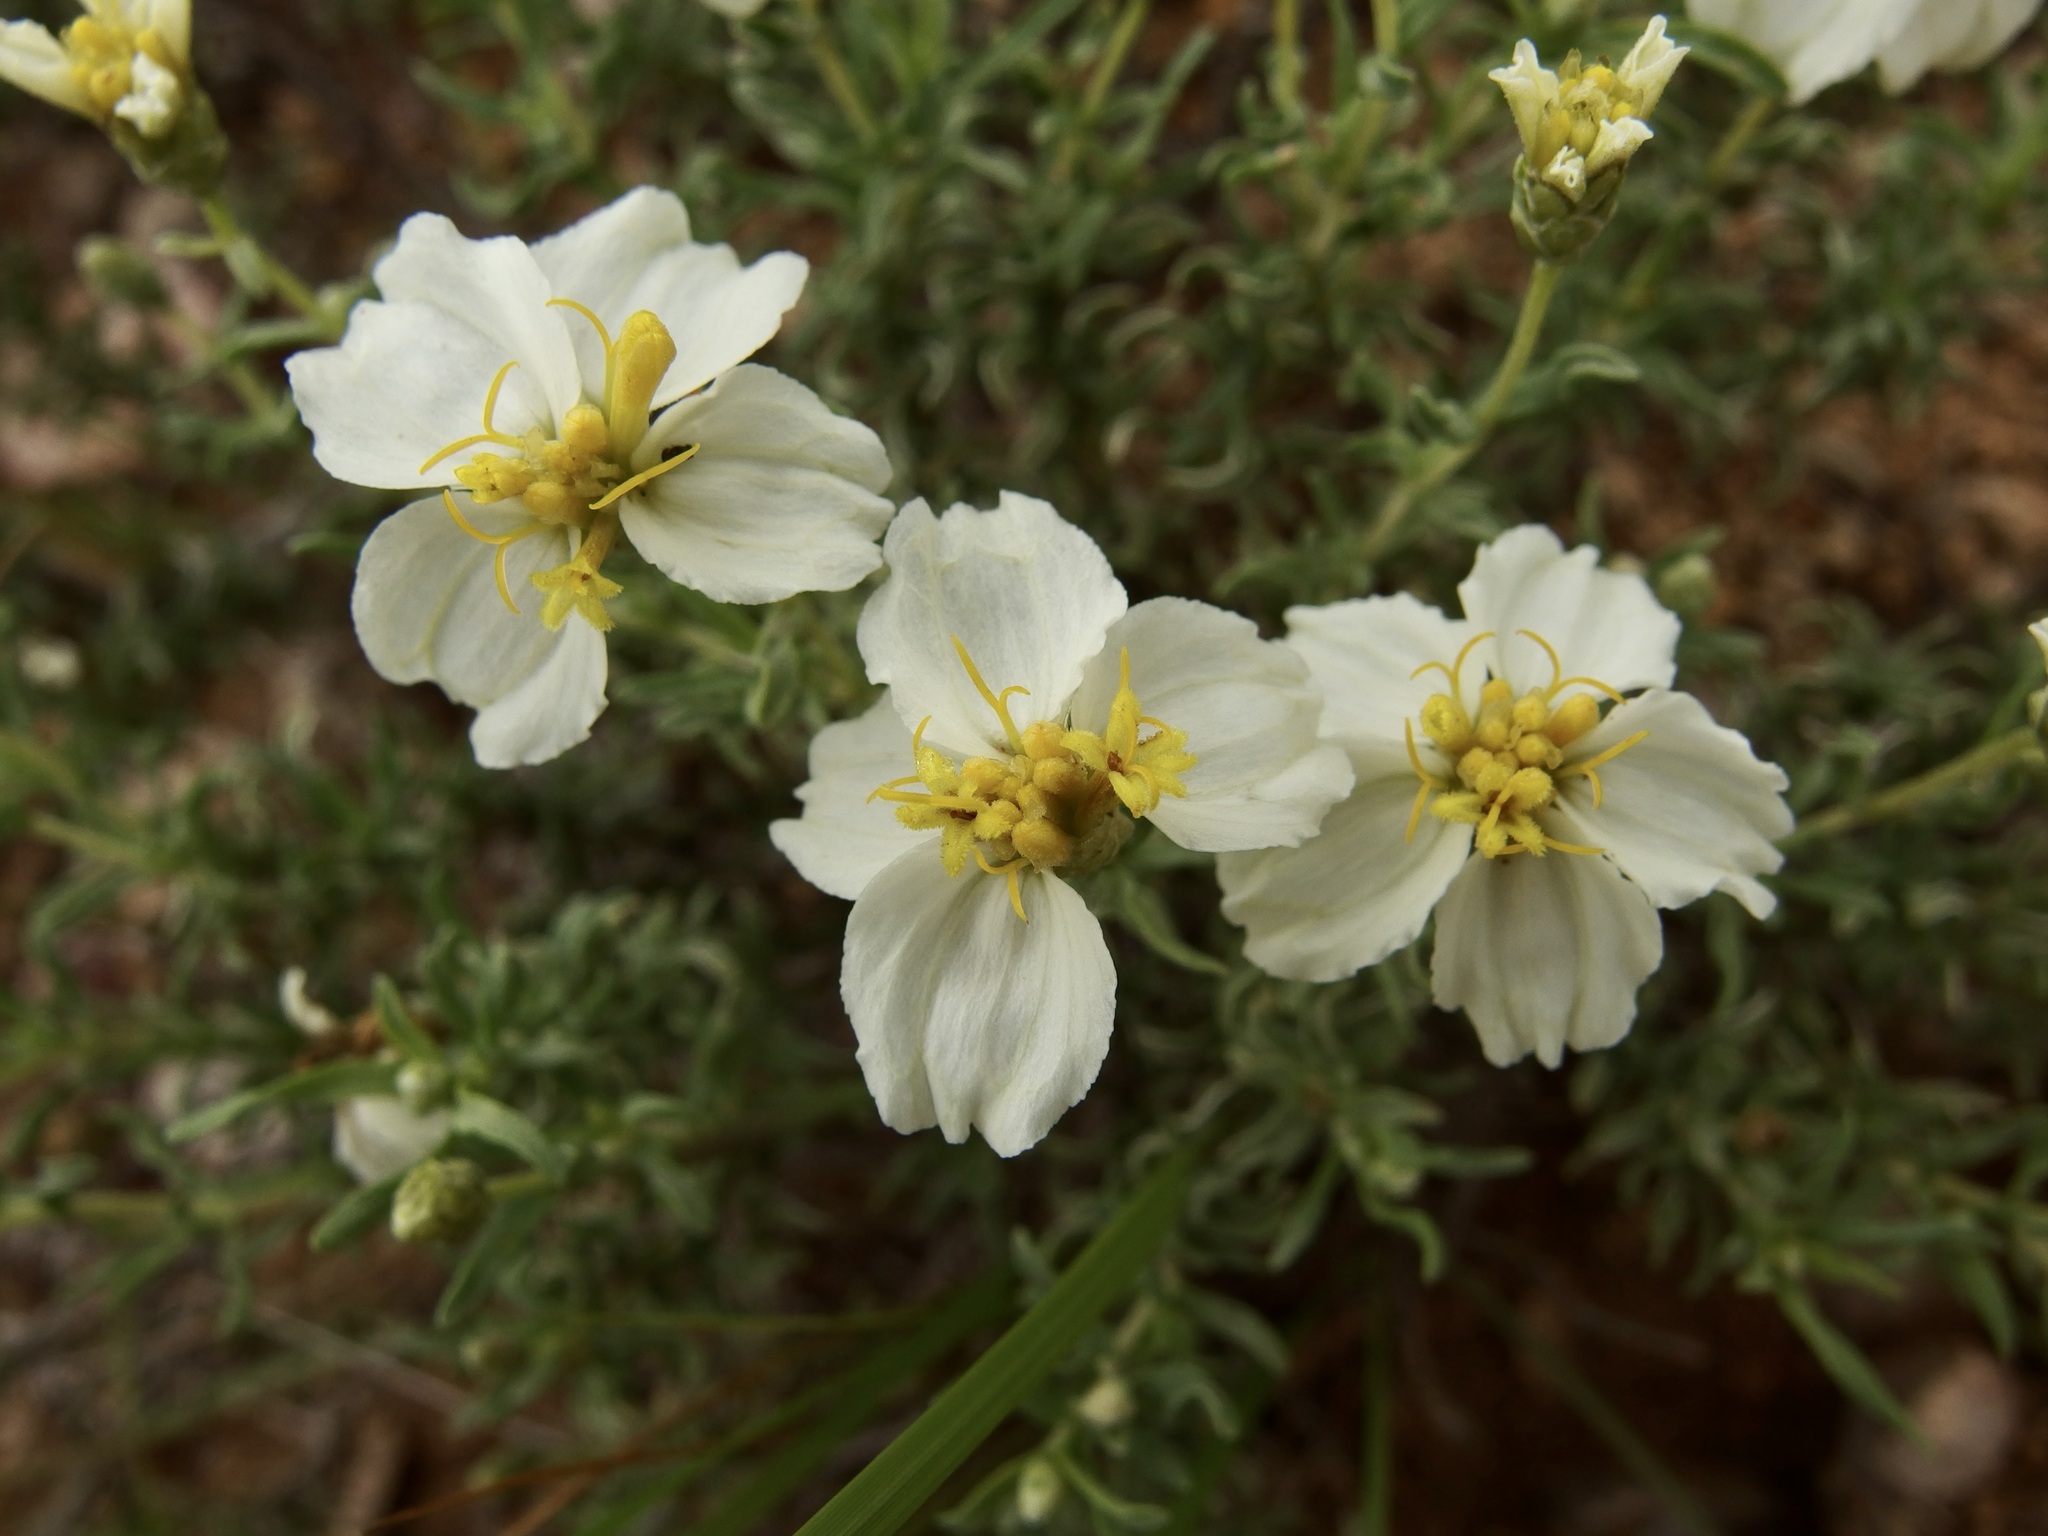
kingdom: Plantae
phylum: Tracheophyta
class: Magnoliopsida
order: Asterales
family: Asteraceae
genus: Zinnia
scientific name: Zinnia acerosa
